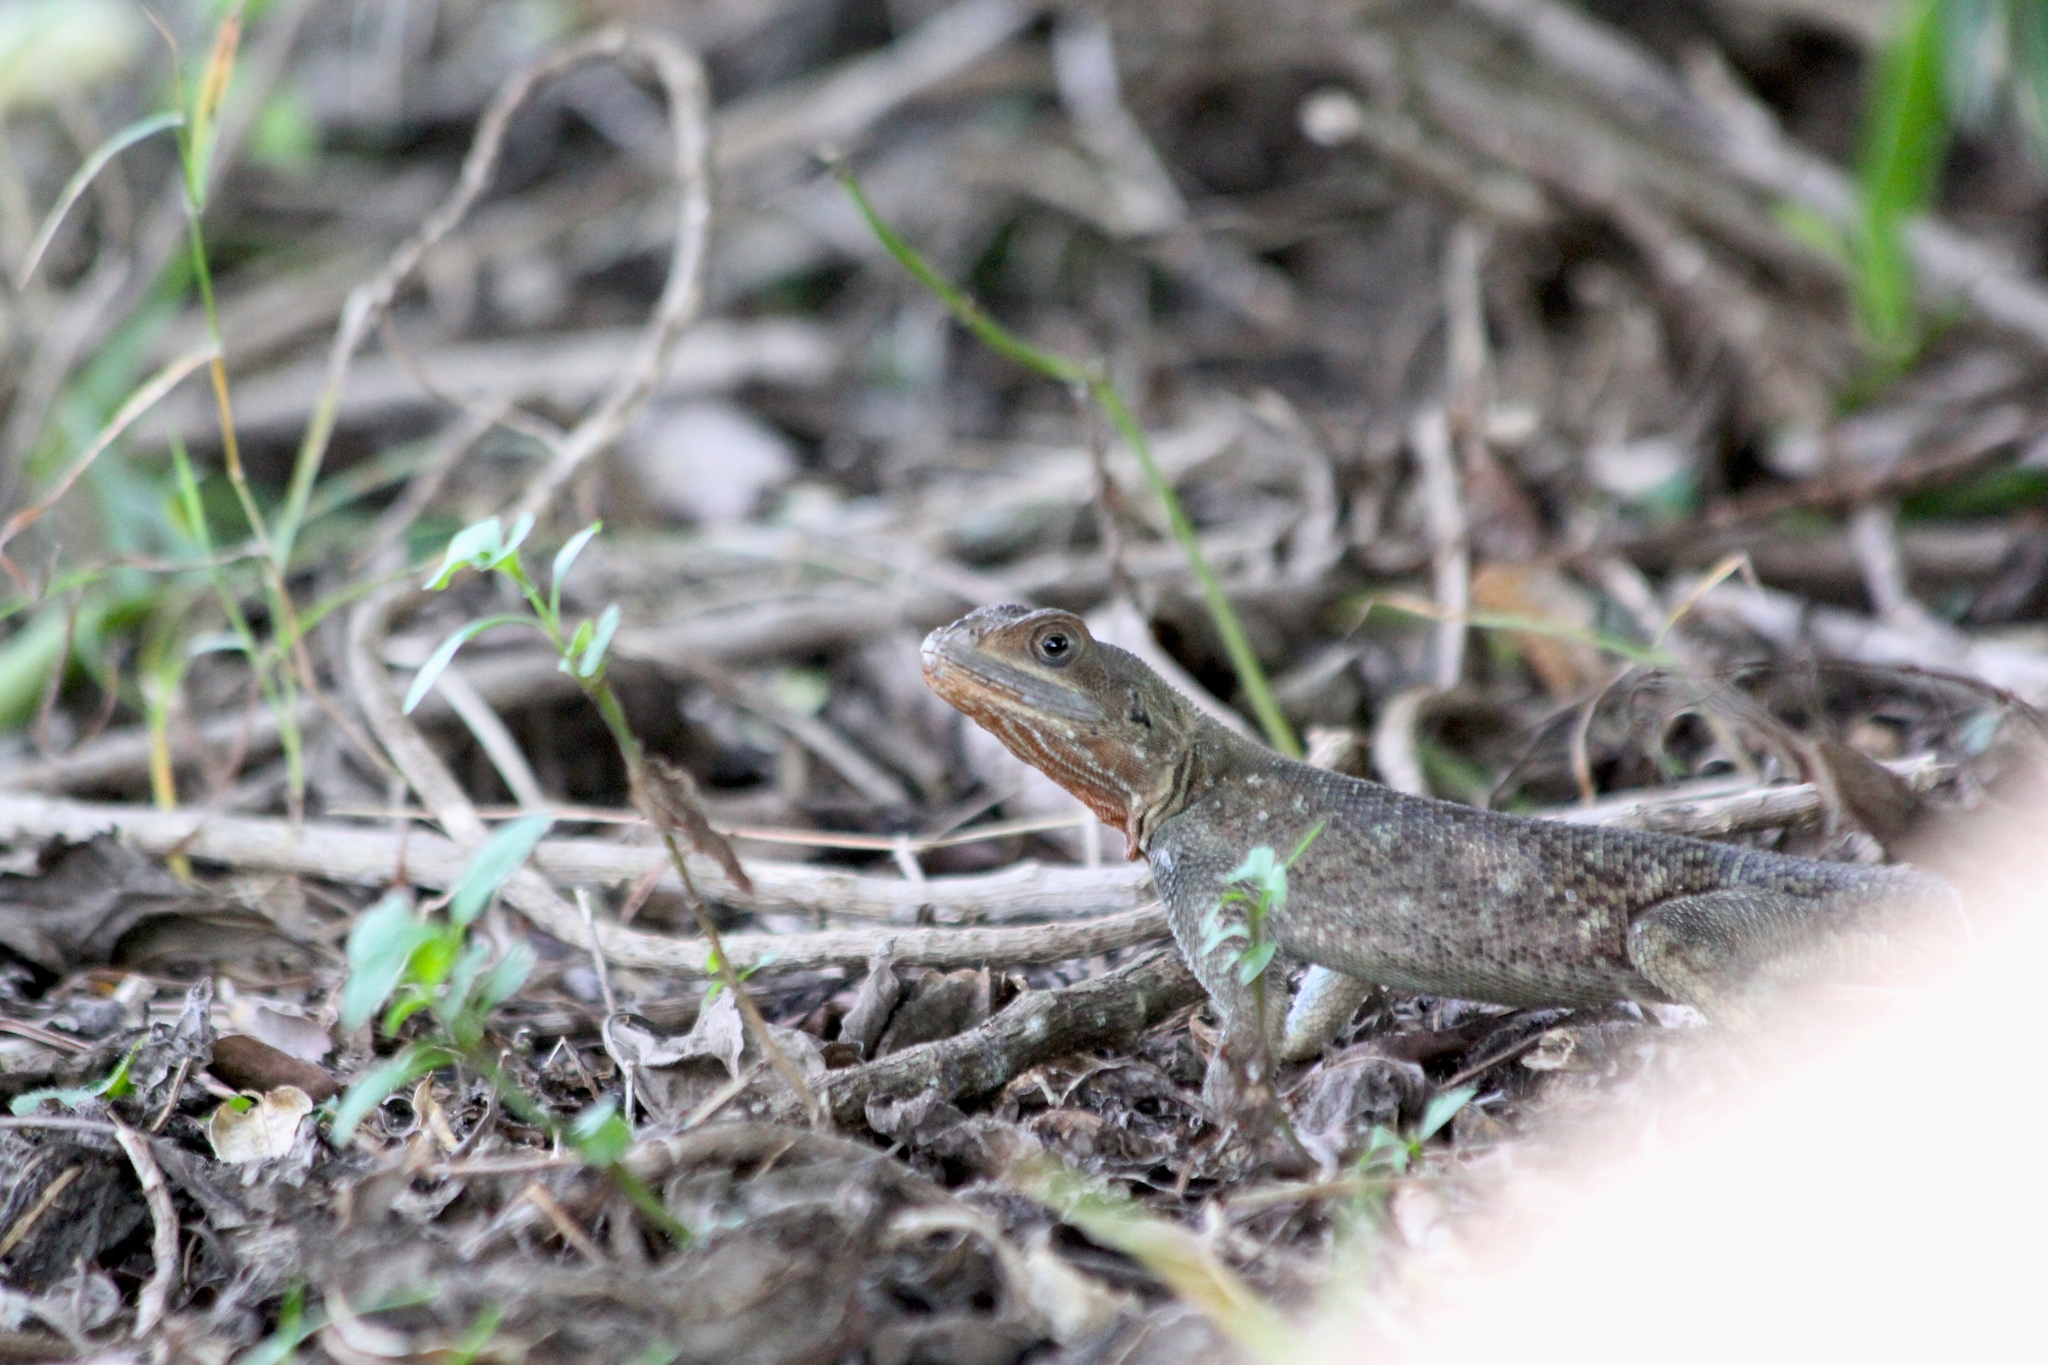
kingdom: Animalia
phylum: Chordata
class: Squamata
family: Agamidae
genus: Agama
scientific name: Agama picticauda
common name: Red-headed agama
